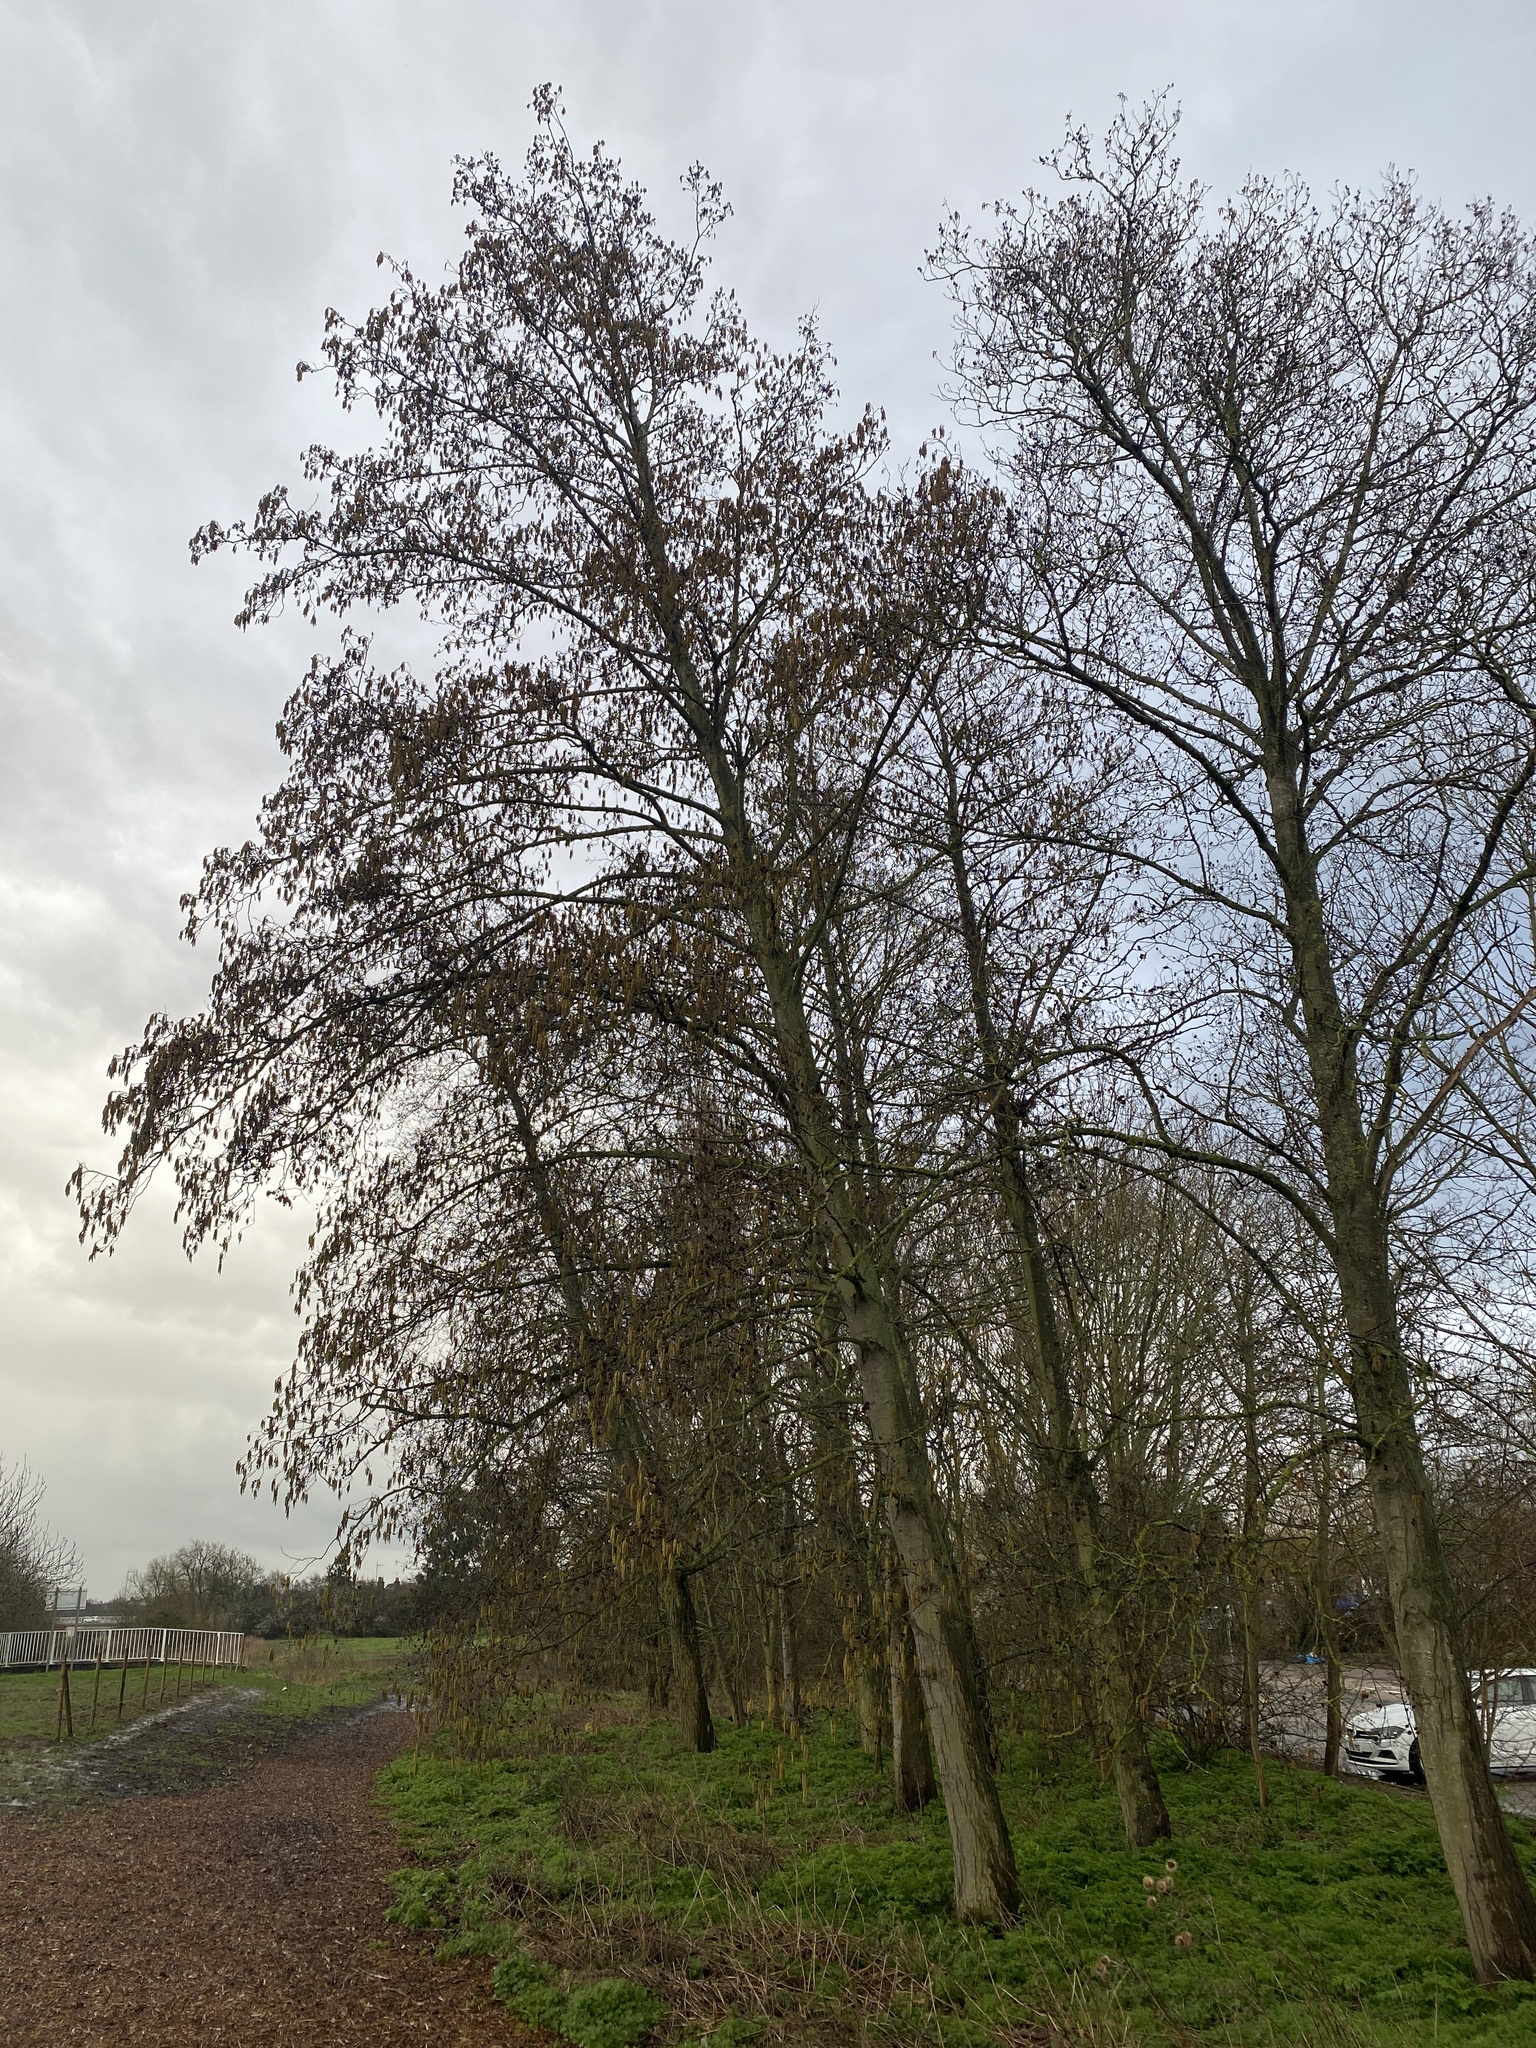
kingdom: Plantae
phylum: Tracheophyta
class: Magnoliopsida
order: Fagales
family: Betulaceae
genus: Alnus
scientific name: Alnus glutinosa
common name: Black alder
